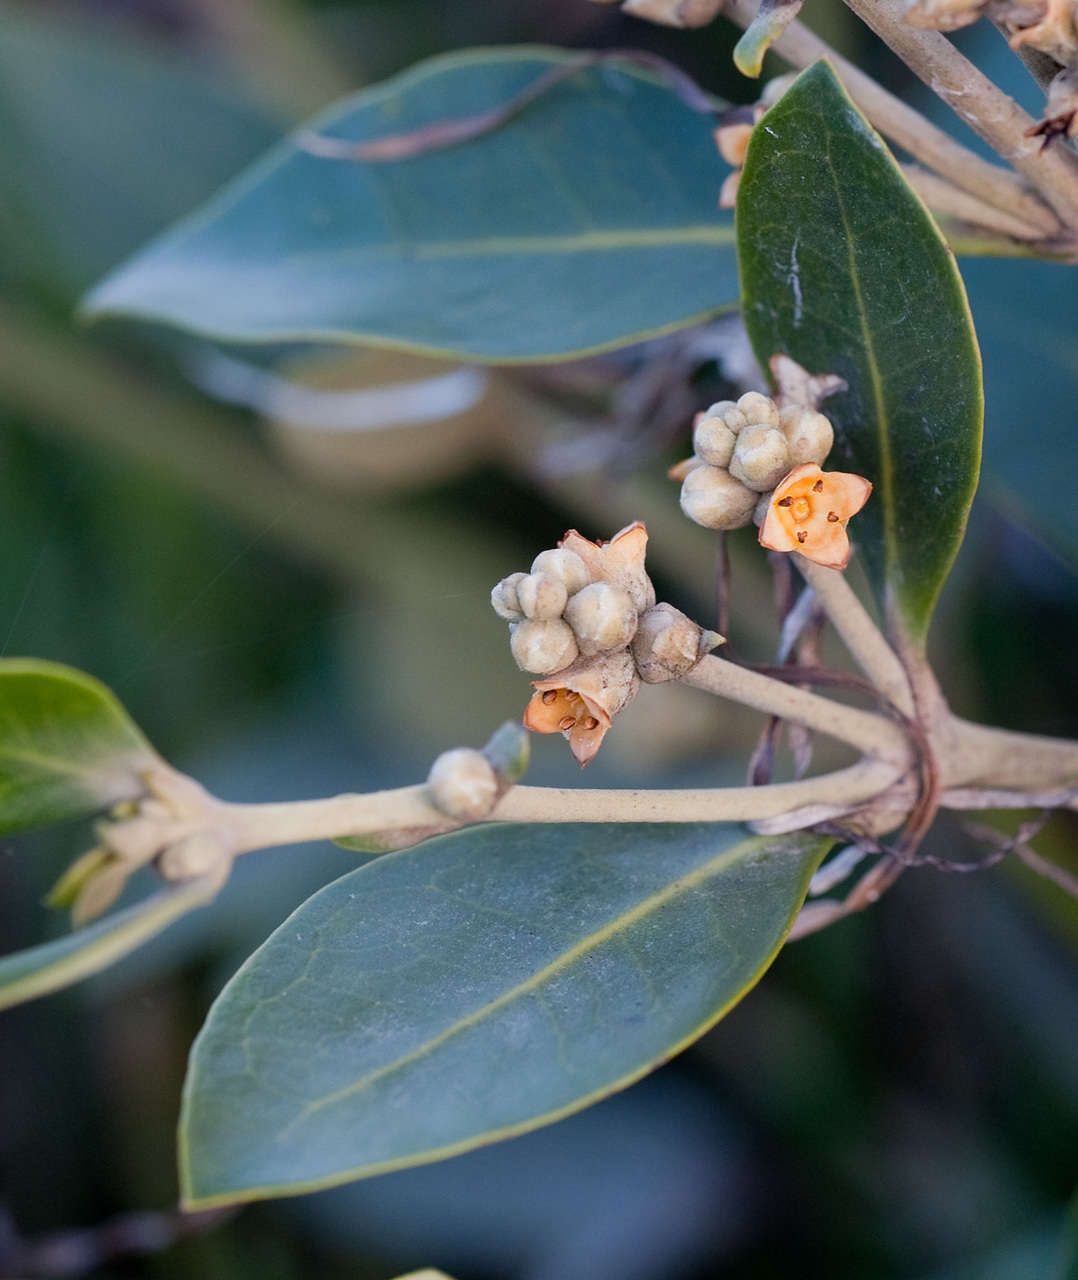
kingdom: Plantae
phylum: Tracheophyta
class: Magnoliopsida
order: Lamiales
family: Acanthaceae
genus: Avicennia
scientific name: Avicennia marina
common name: Gray mangrove
